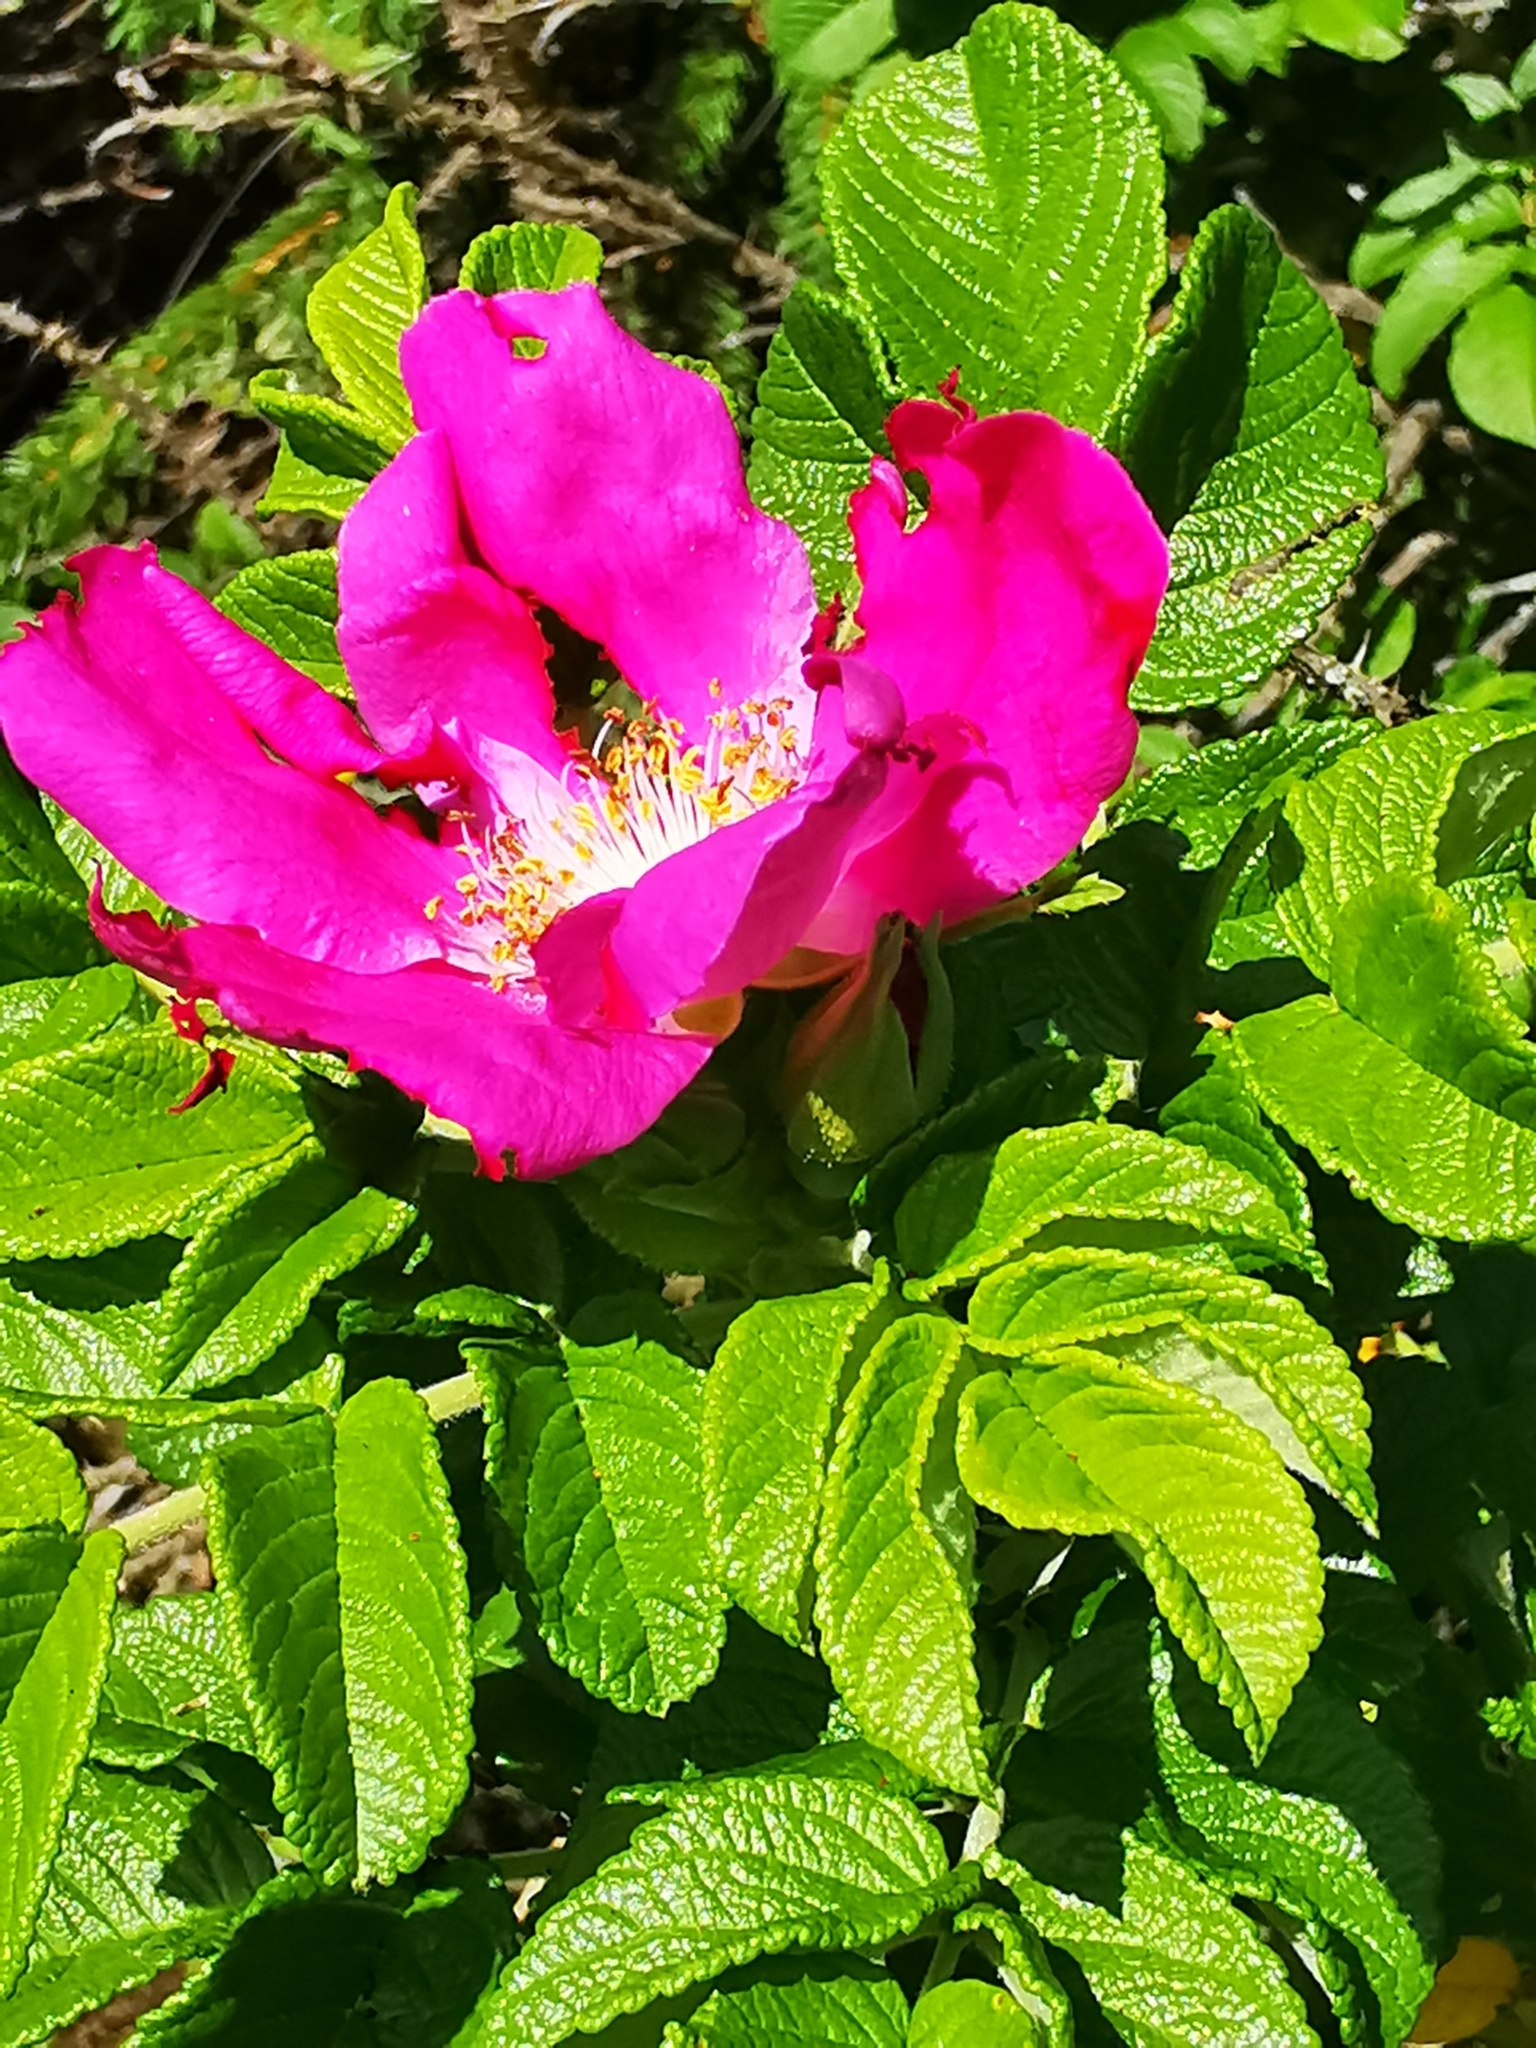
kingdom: Plantae
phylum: Tracheophyta
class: Magnoliopsida
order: Rosales
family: Rosaceae
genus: Rosa
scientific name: Rosa rugosa
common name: Japanese rose
